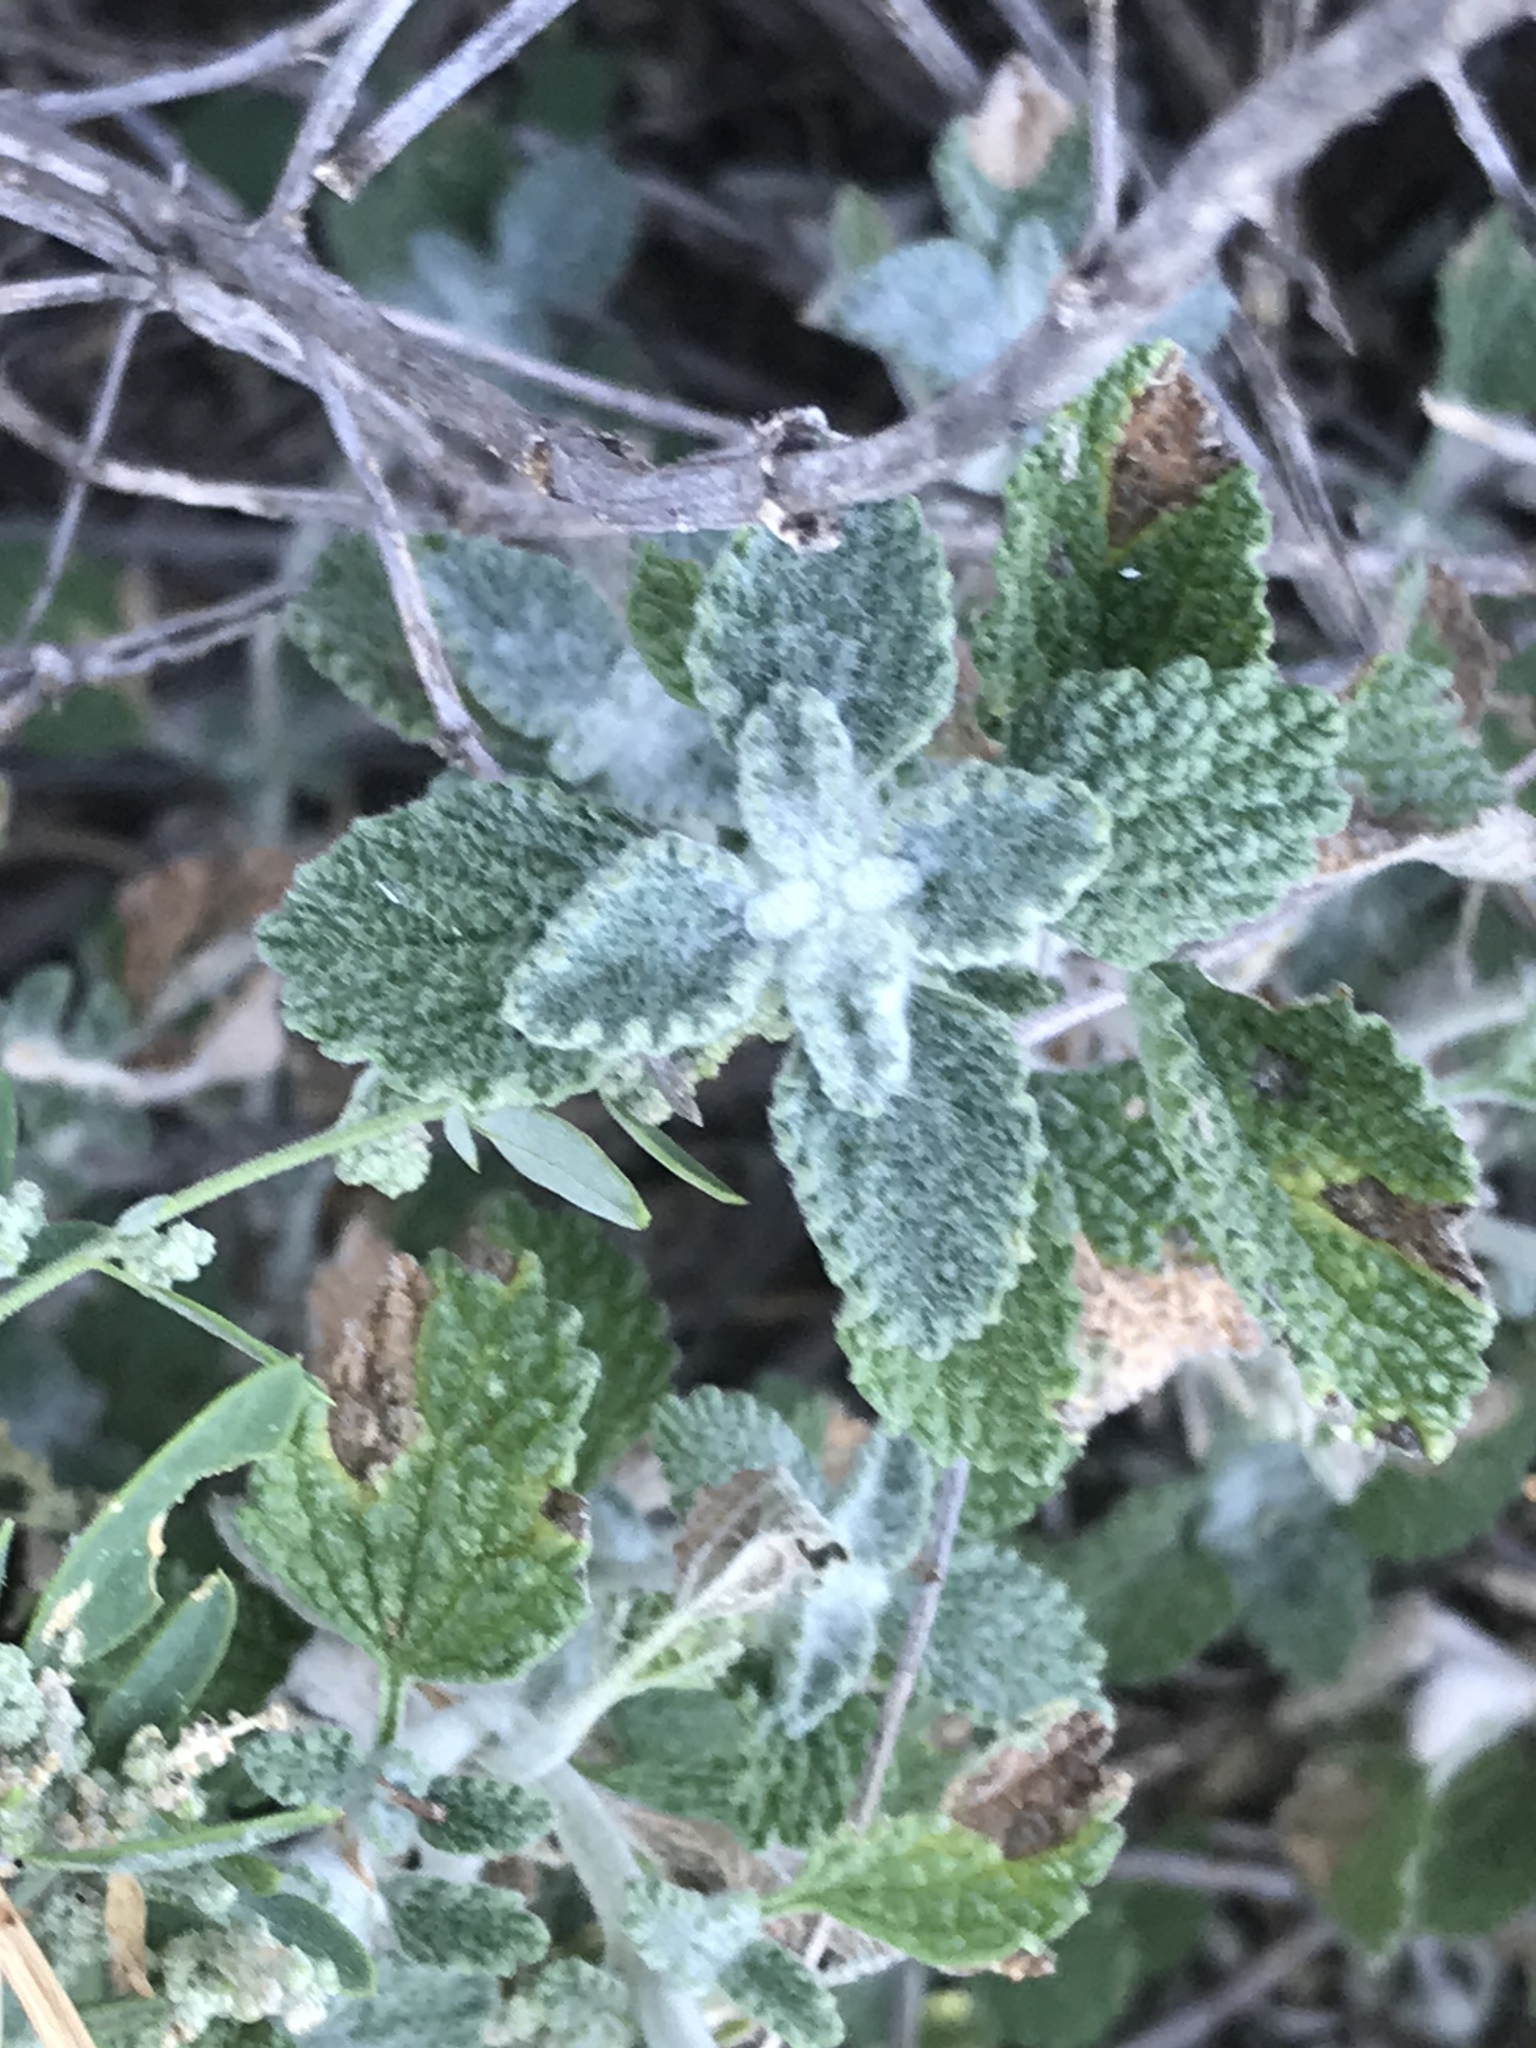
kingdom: Plantae
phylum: Tracheophyta
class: Magnoliopsida
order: Lamiales
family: Lamiaceae
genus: Marrubium
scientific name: Marrubium vulgare
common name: Horehound
